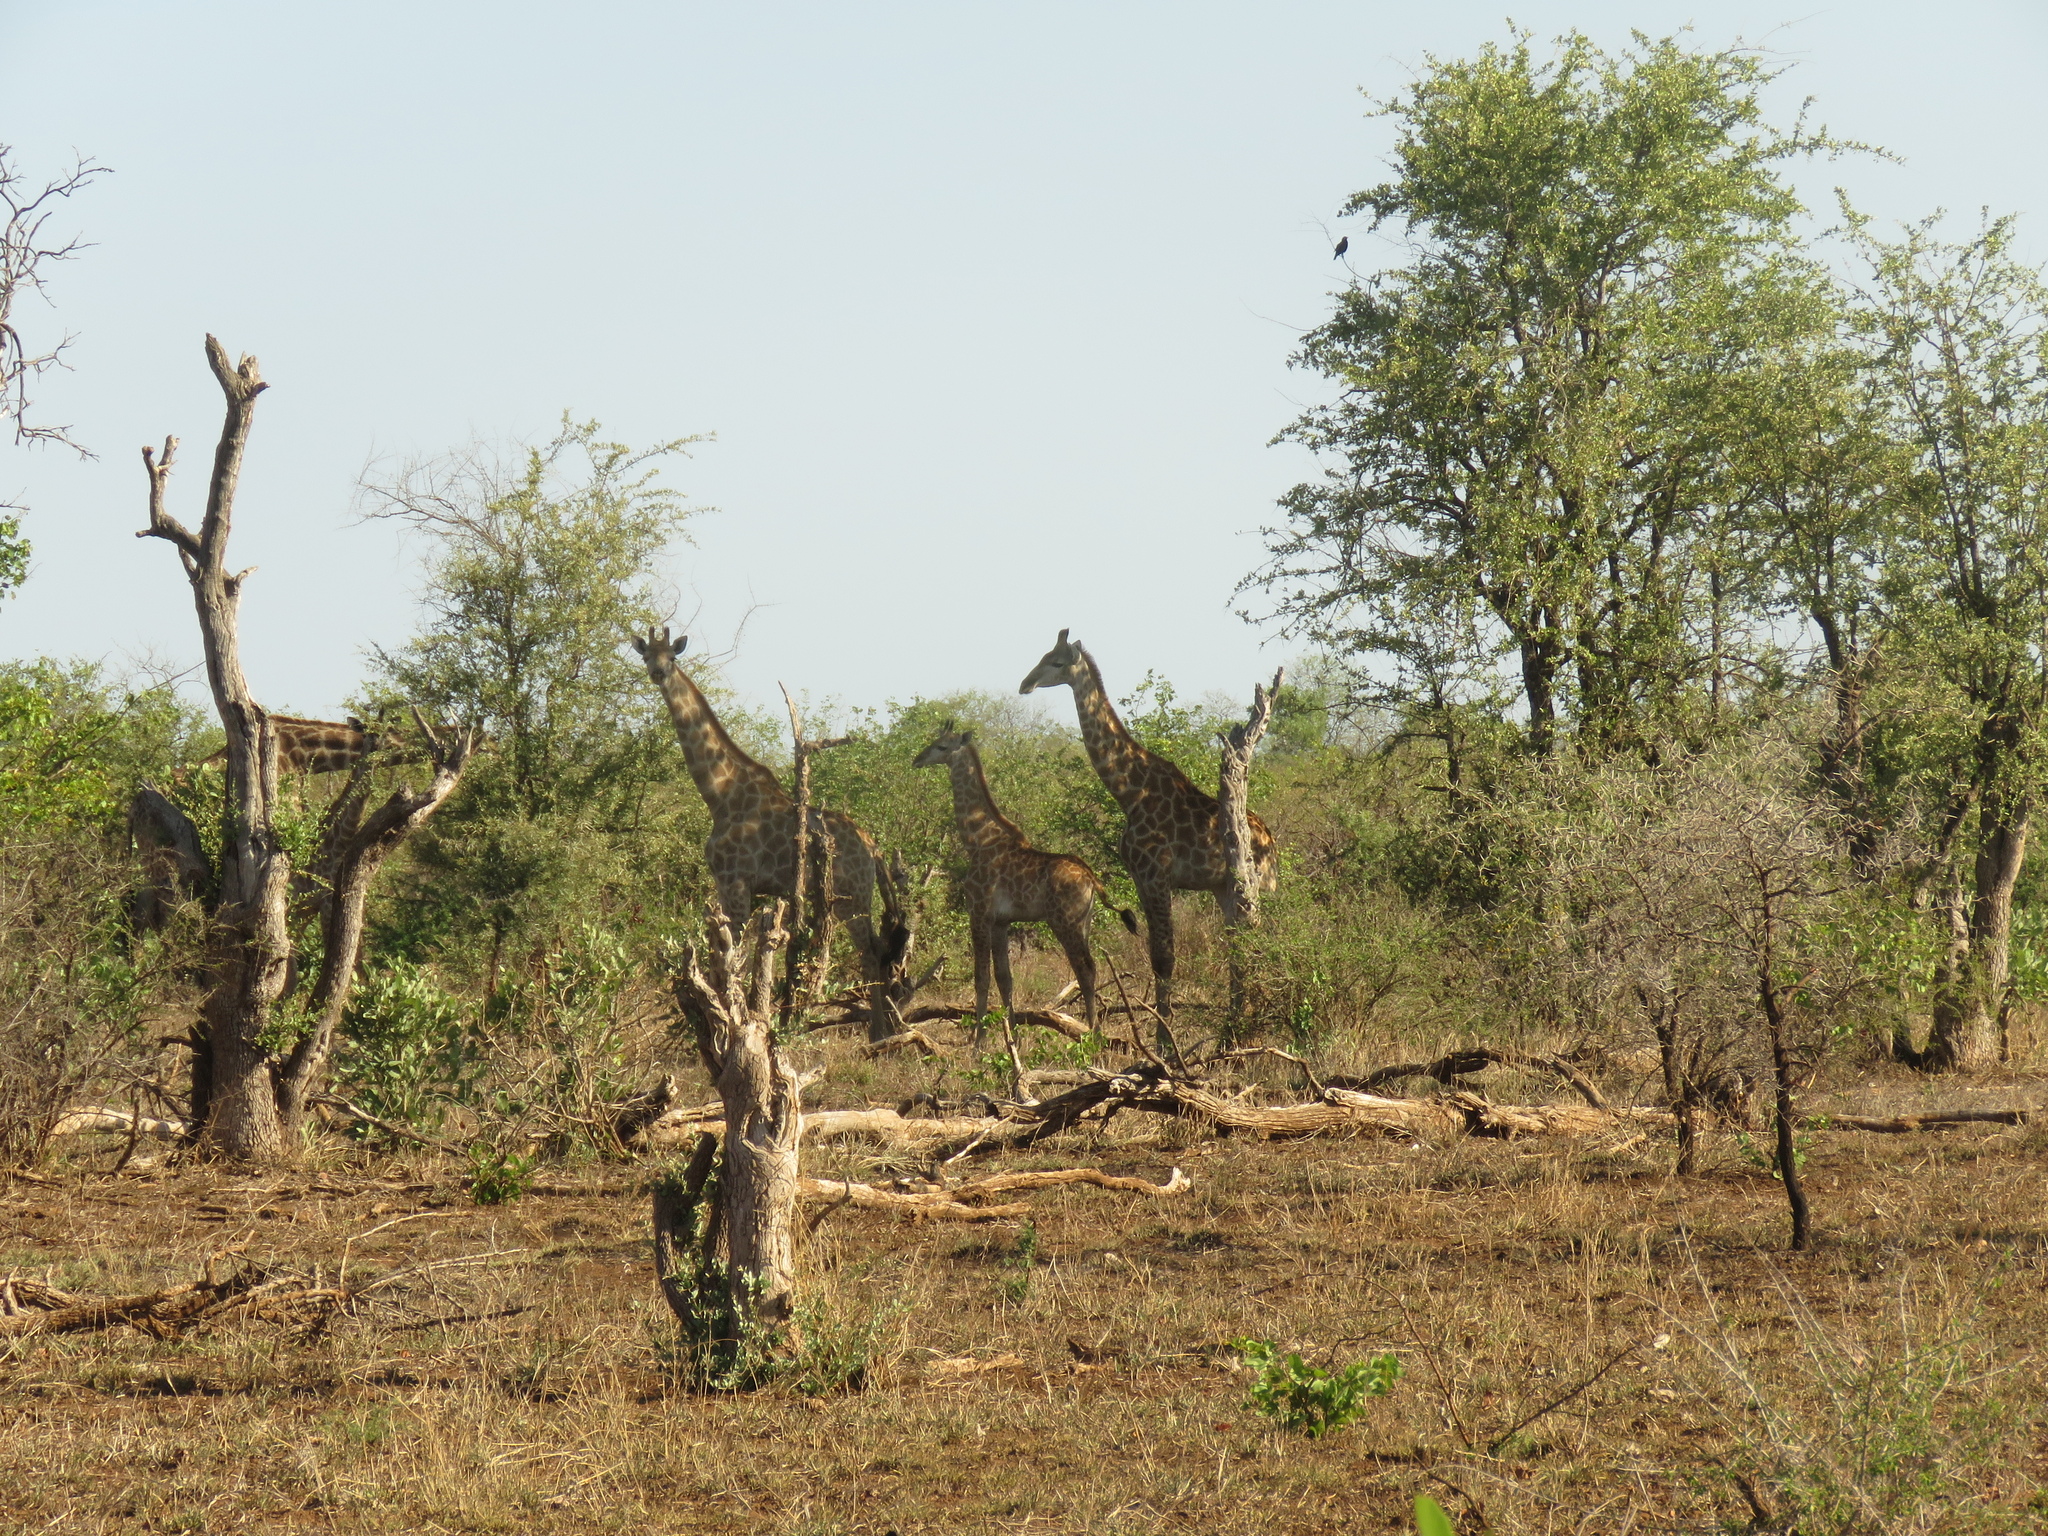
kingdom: Animalia
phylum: Chordata
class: Mammalia
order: Artiodactyla
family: Giraffidae
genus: Giraffa
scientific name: Giraffa giraffa
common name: Southern giraffe
